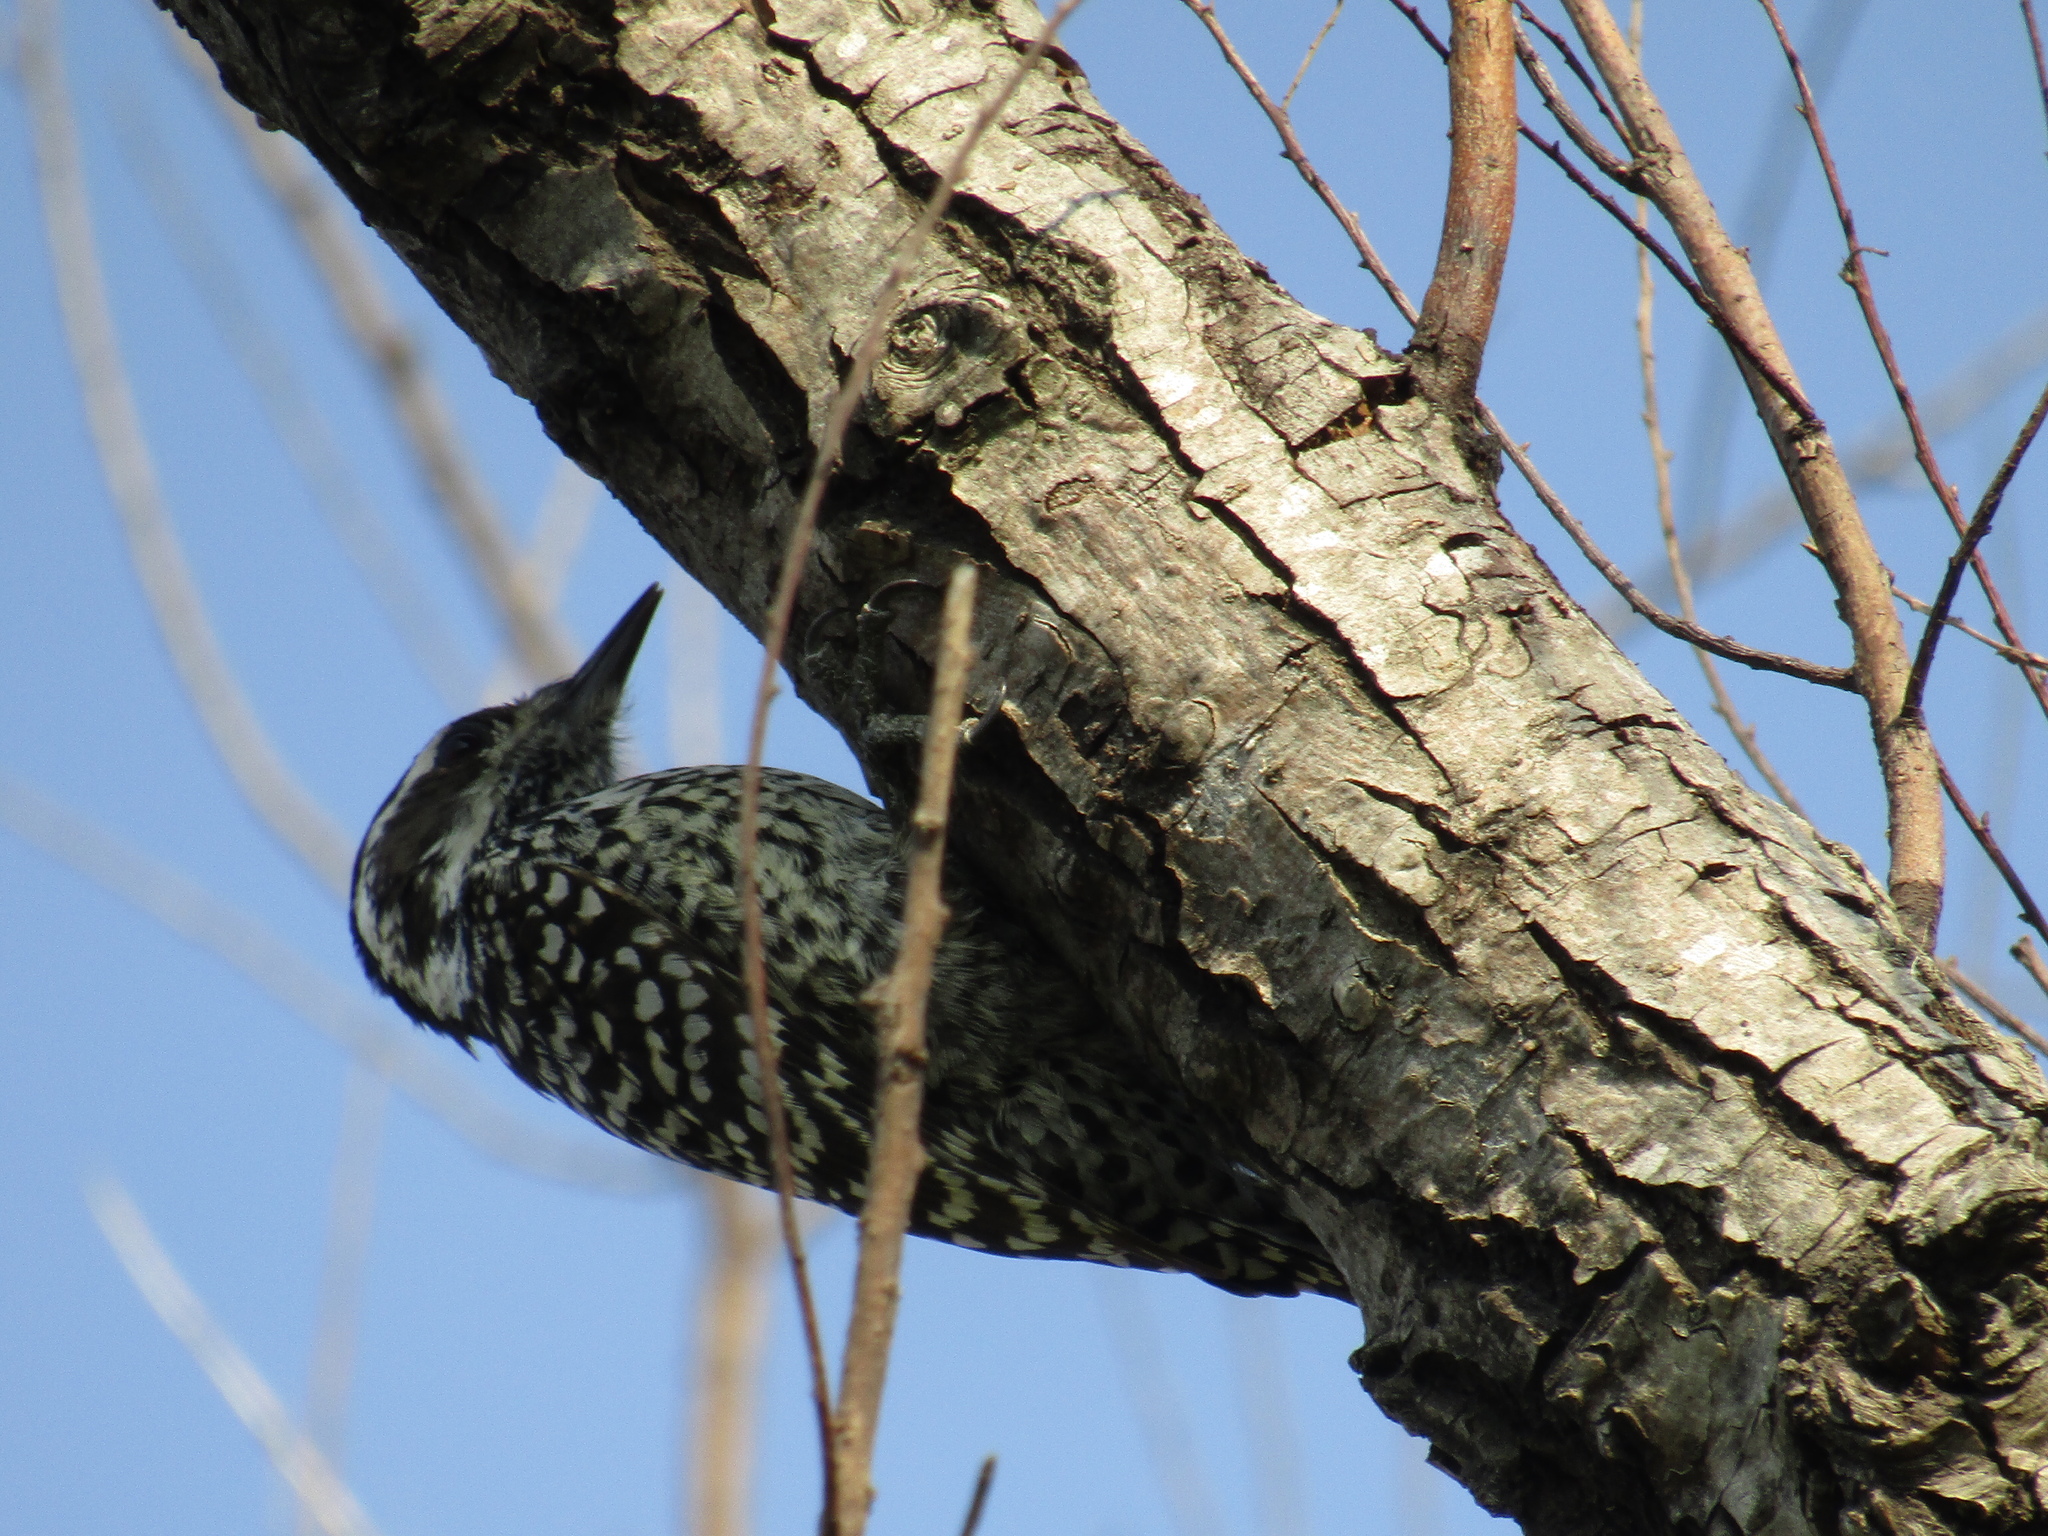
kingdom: Animalia
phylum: Chordata
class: Aves
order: Piciformes
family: Picidae
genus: Veniliornis
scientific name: Veniliornis mixtus
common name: Checkered woodpecker
